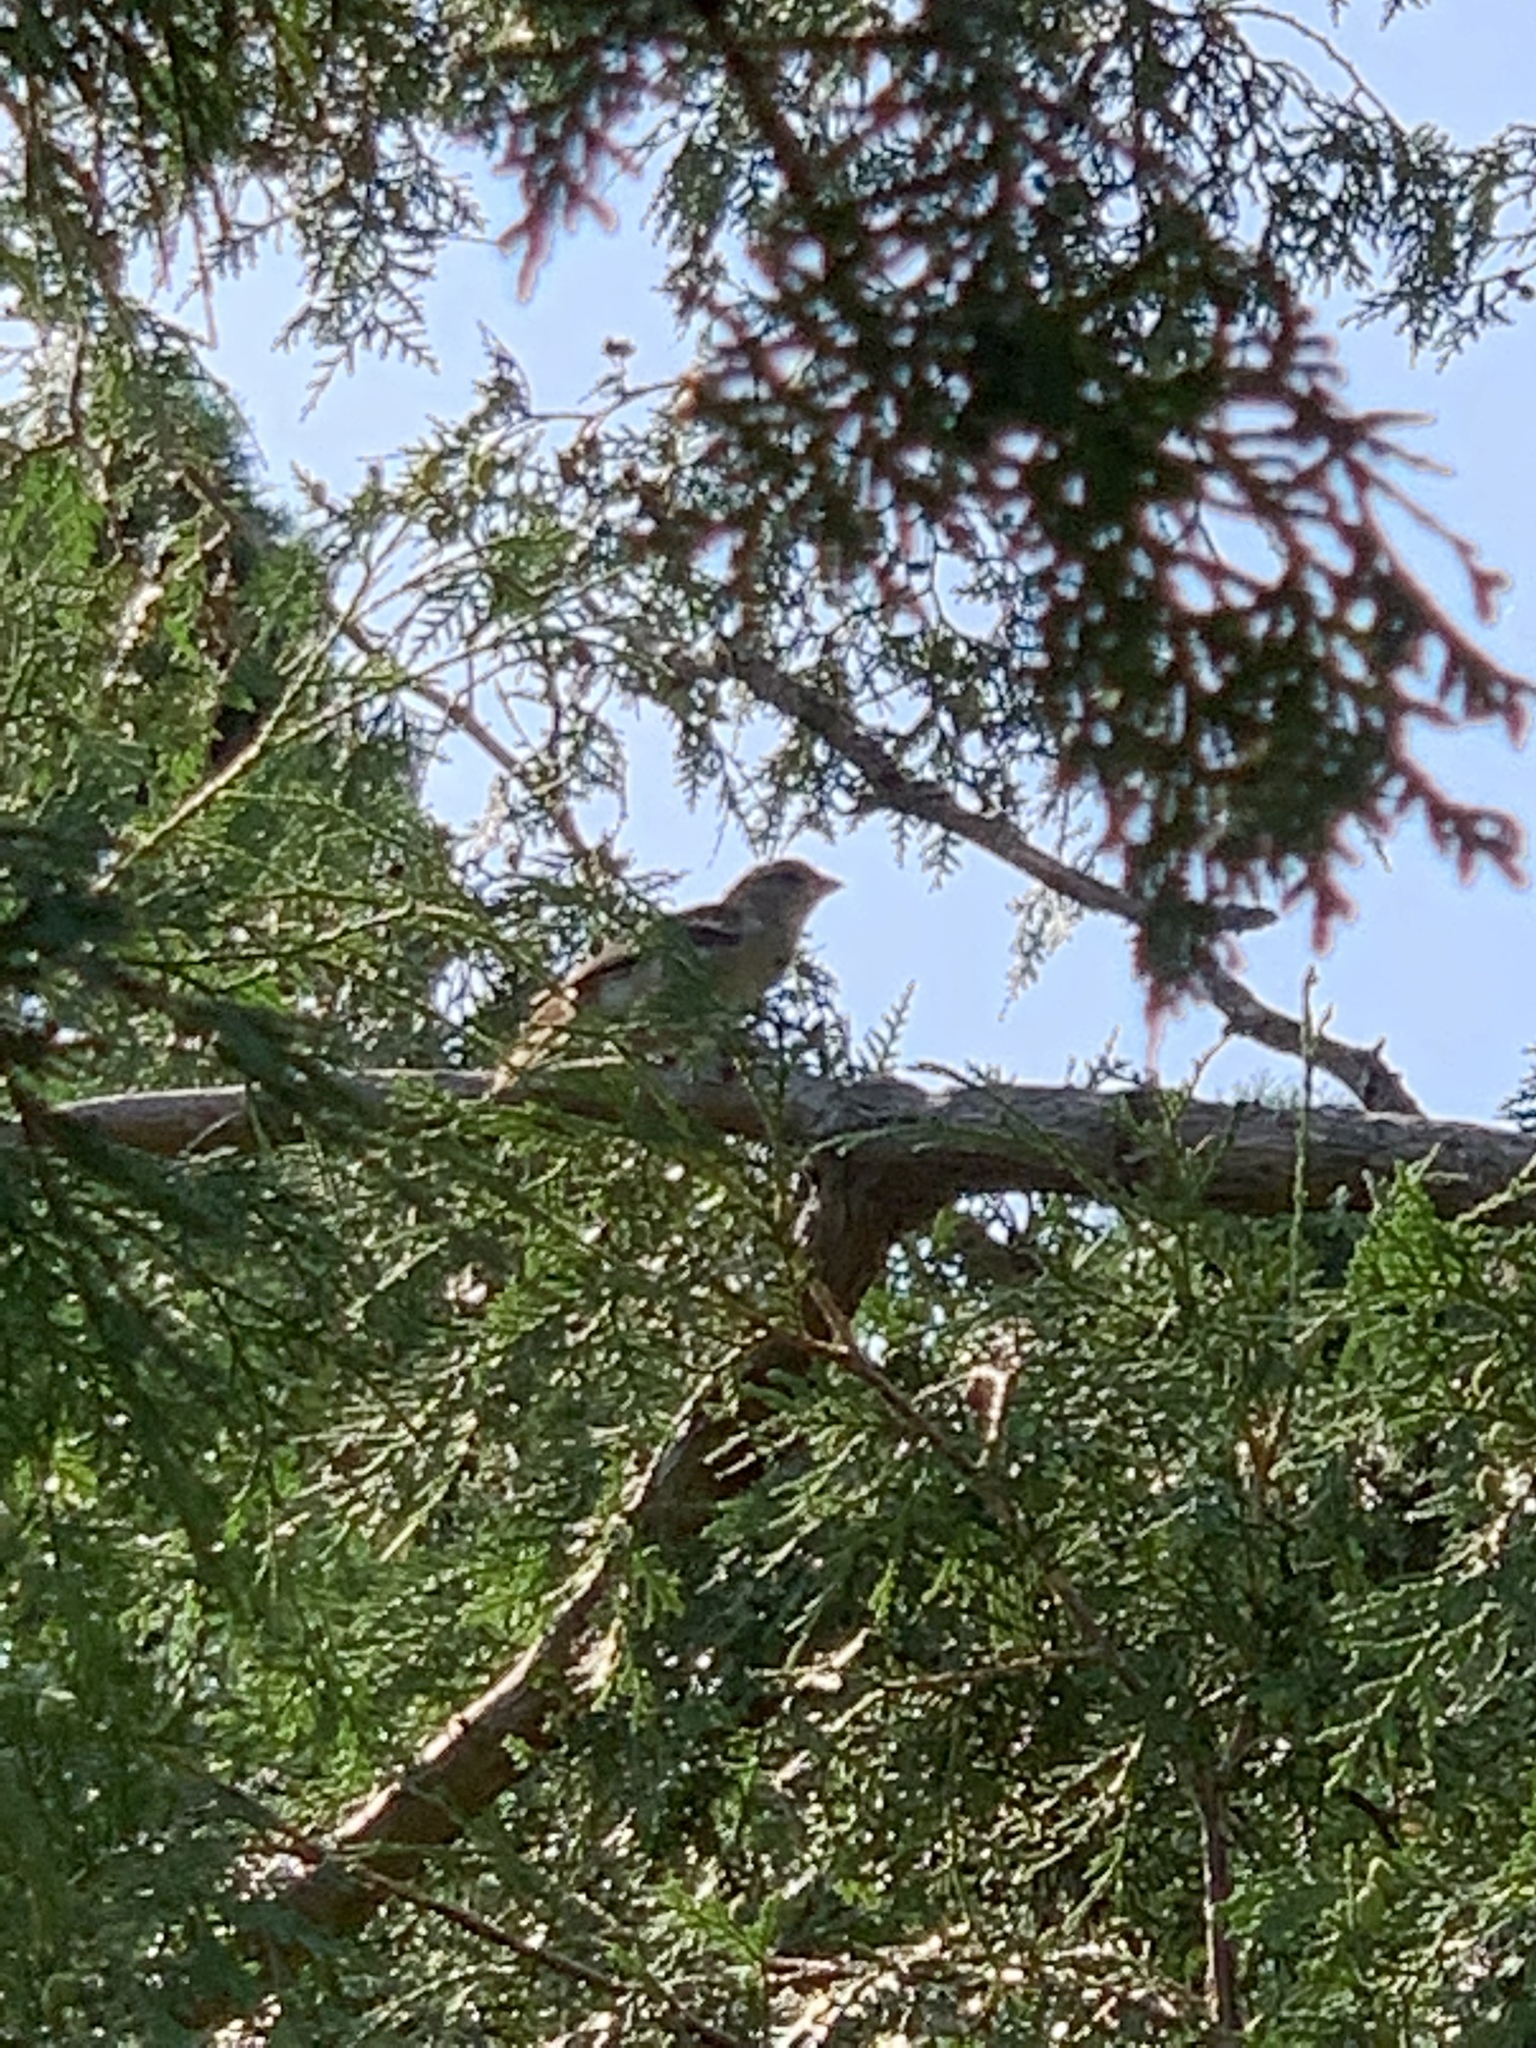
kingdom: Animalia
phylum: Chordata
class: Aves
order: Passeriformes
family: Passeridae
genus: Passer
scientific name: Passer domesticus
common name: House sparrow
